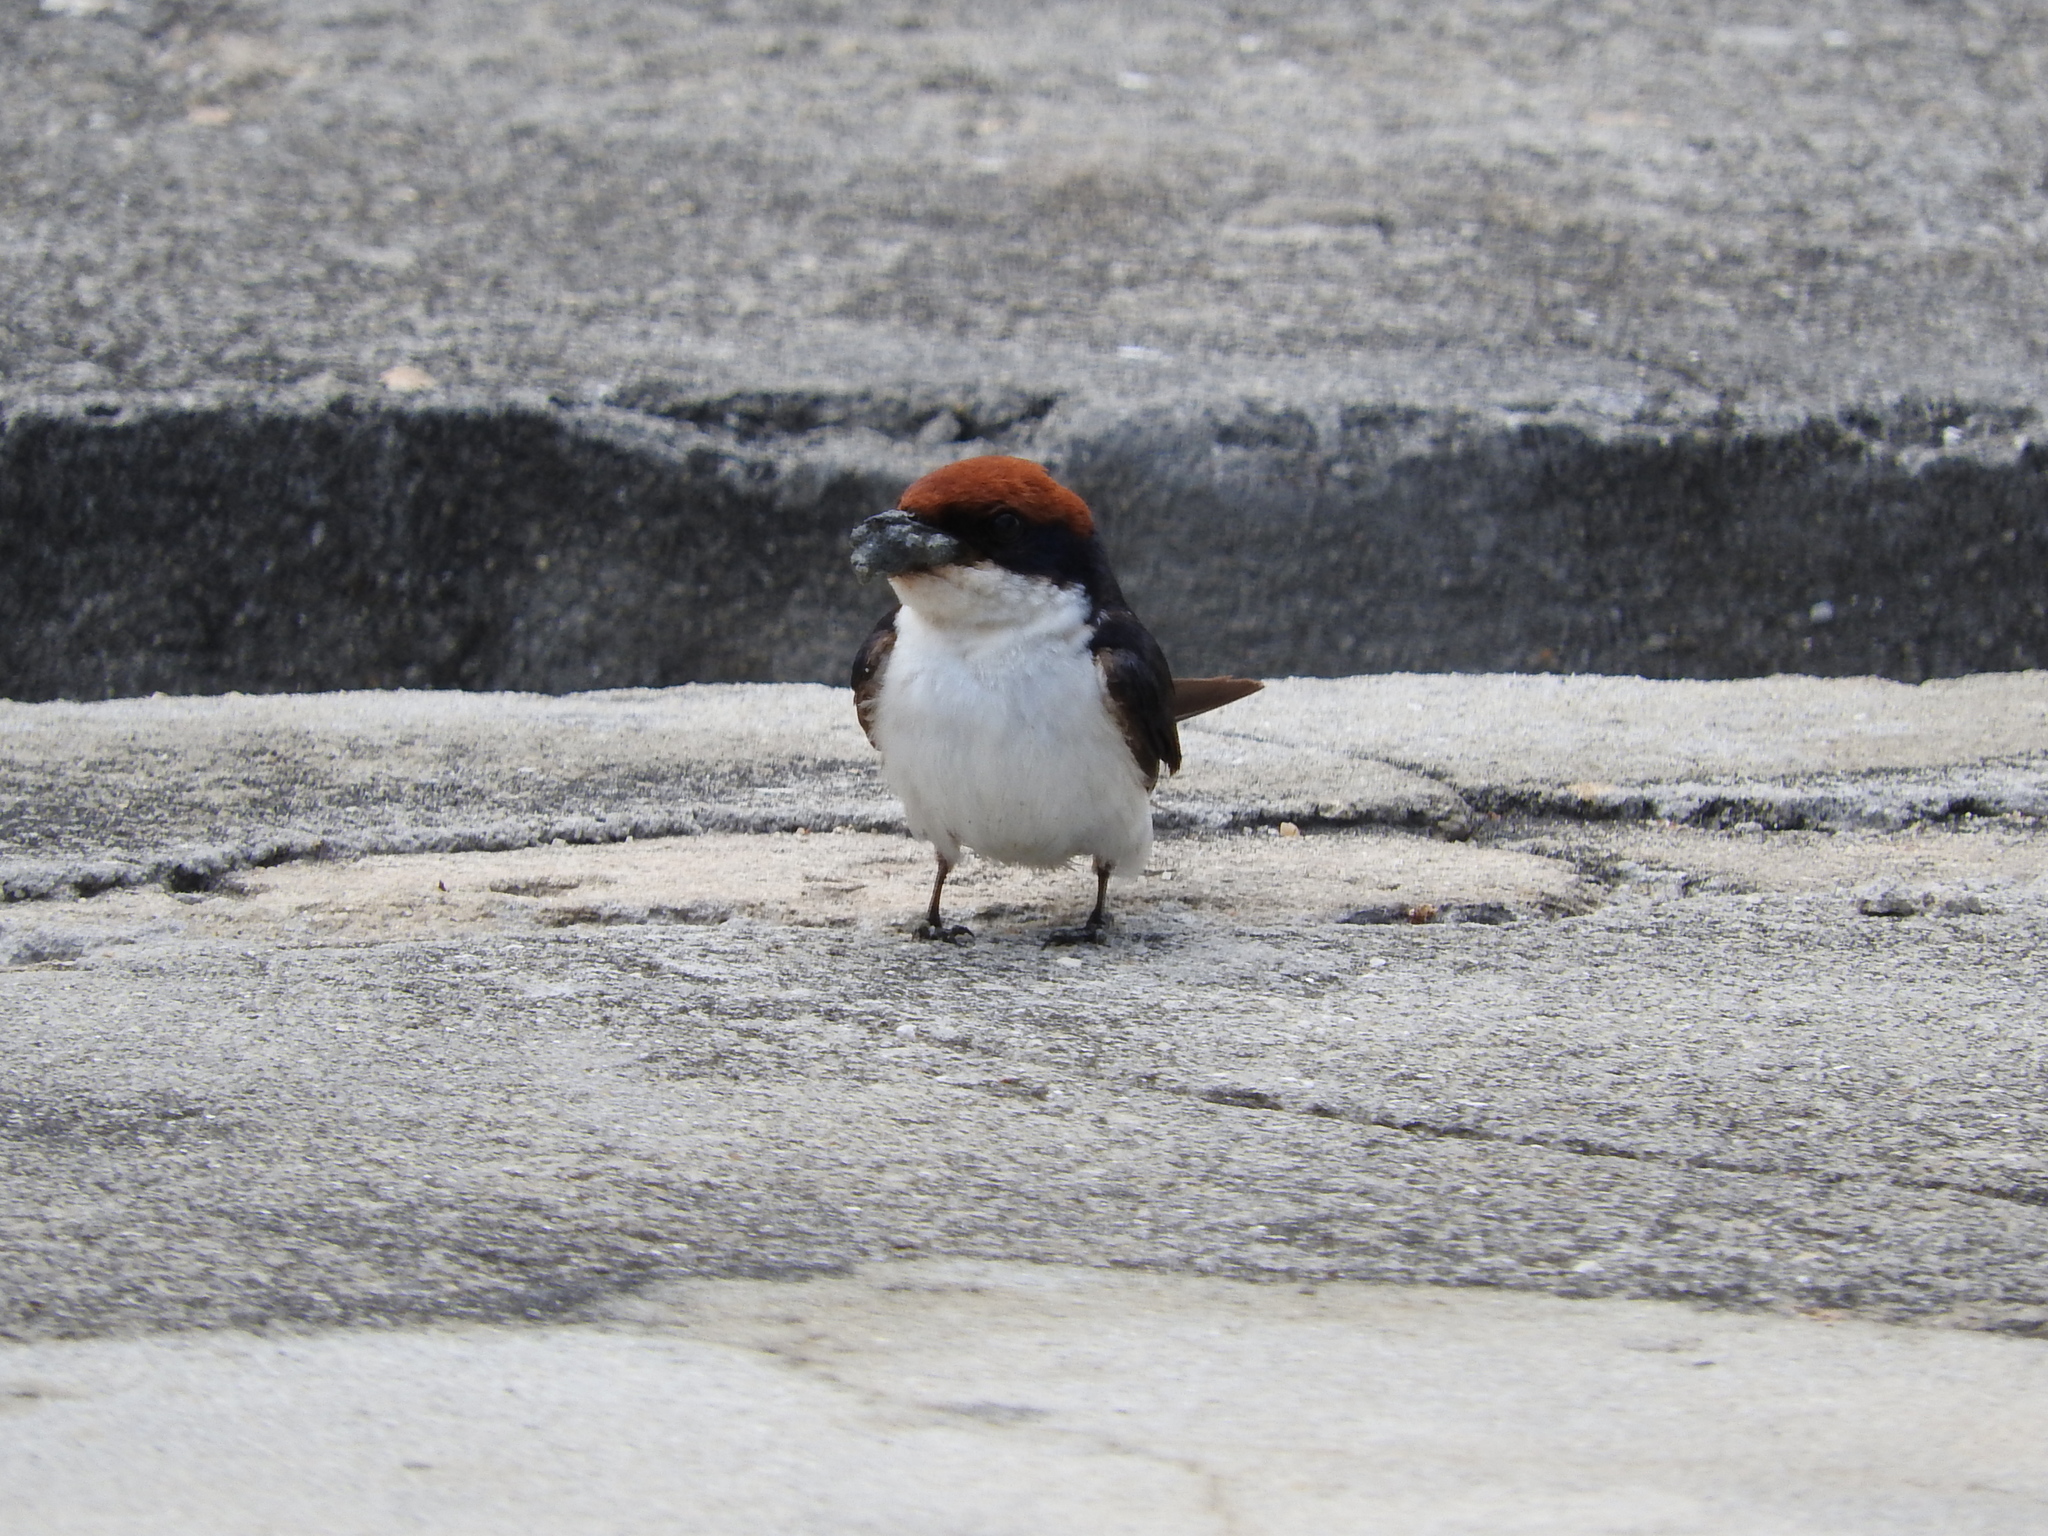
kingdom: Animalia
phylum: Chordata
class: Aves
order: Passeriformes
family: Hirundinidae
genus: Hirundo
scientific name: Hirundo smithii
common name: Wire-tailed swallow
